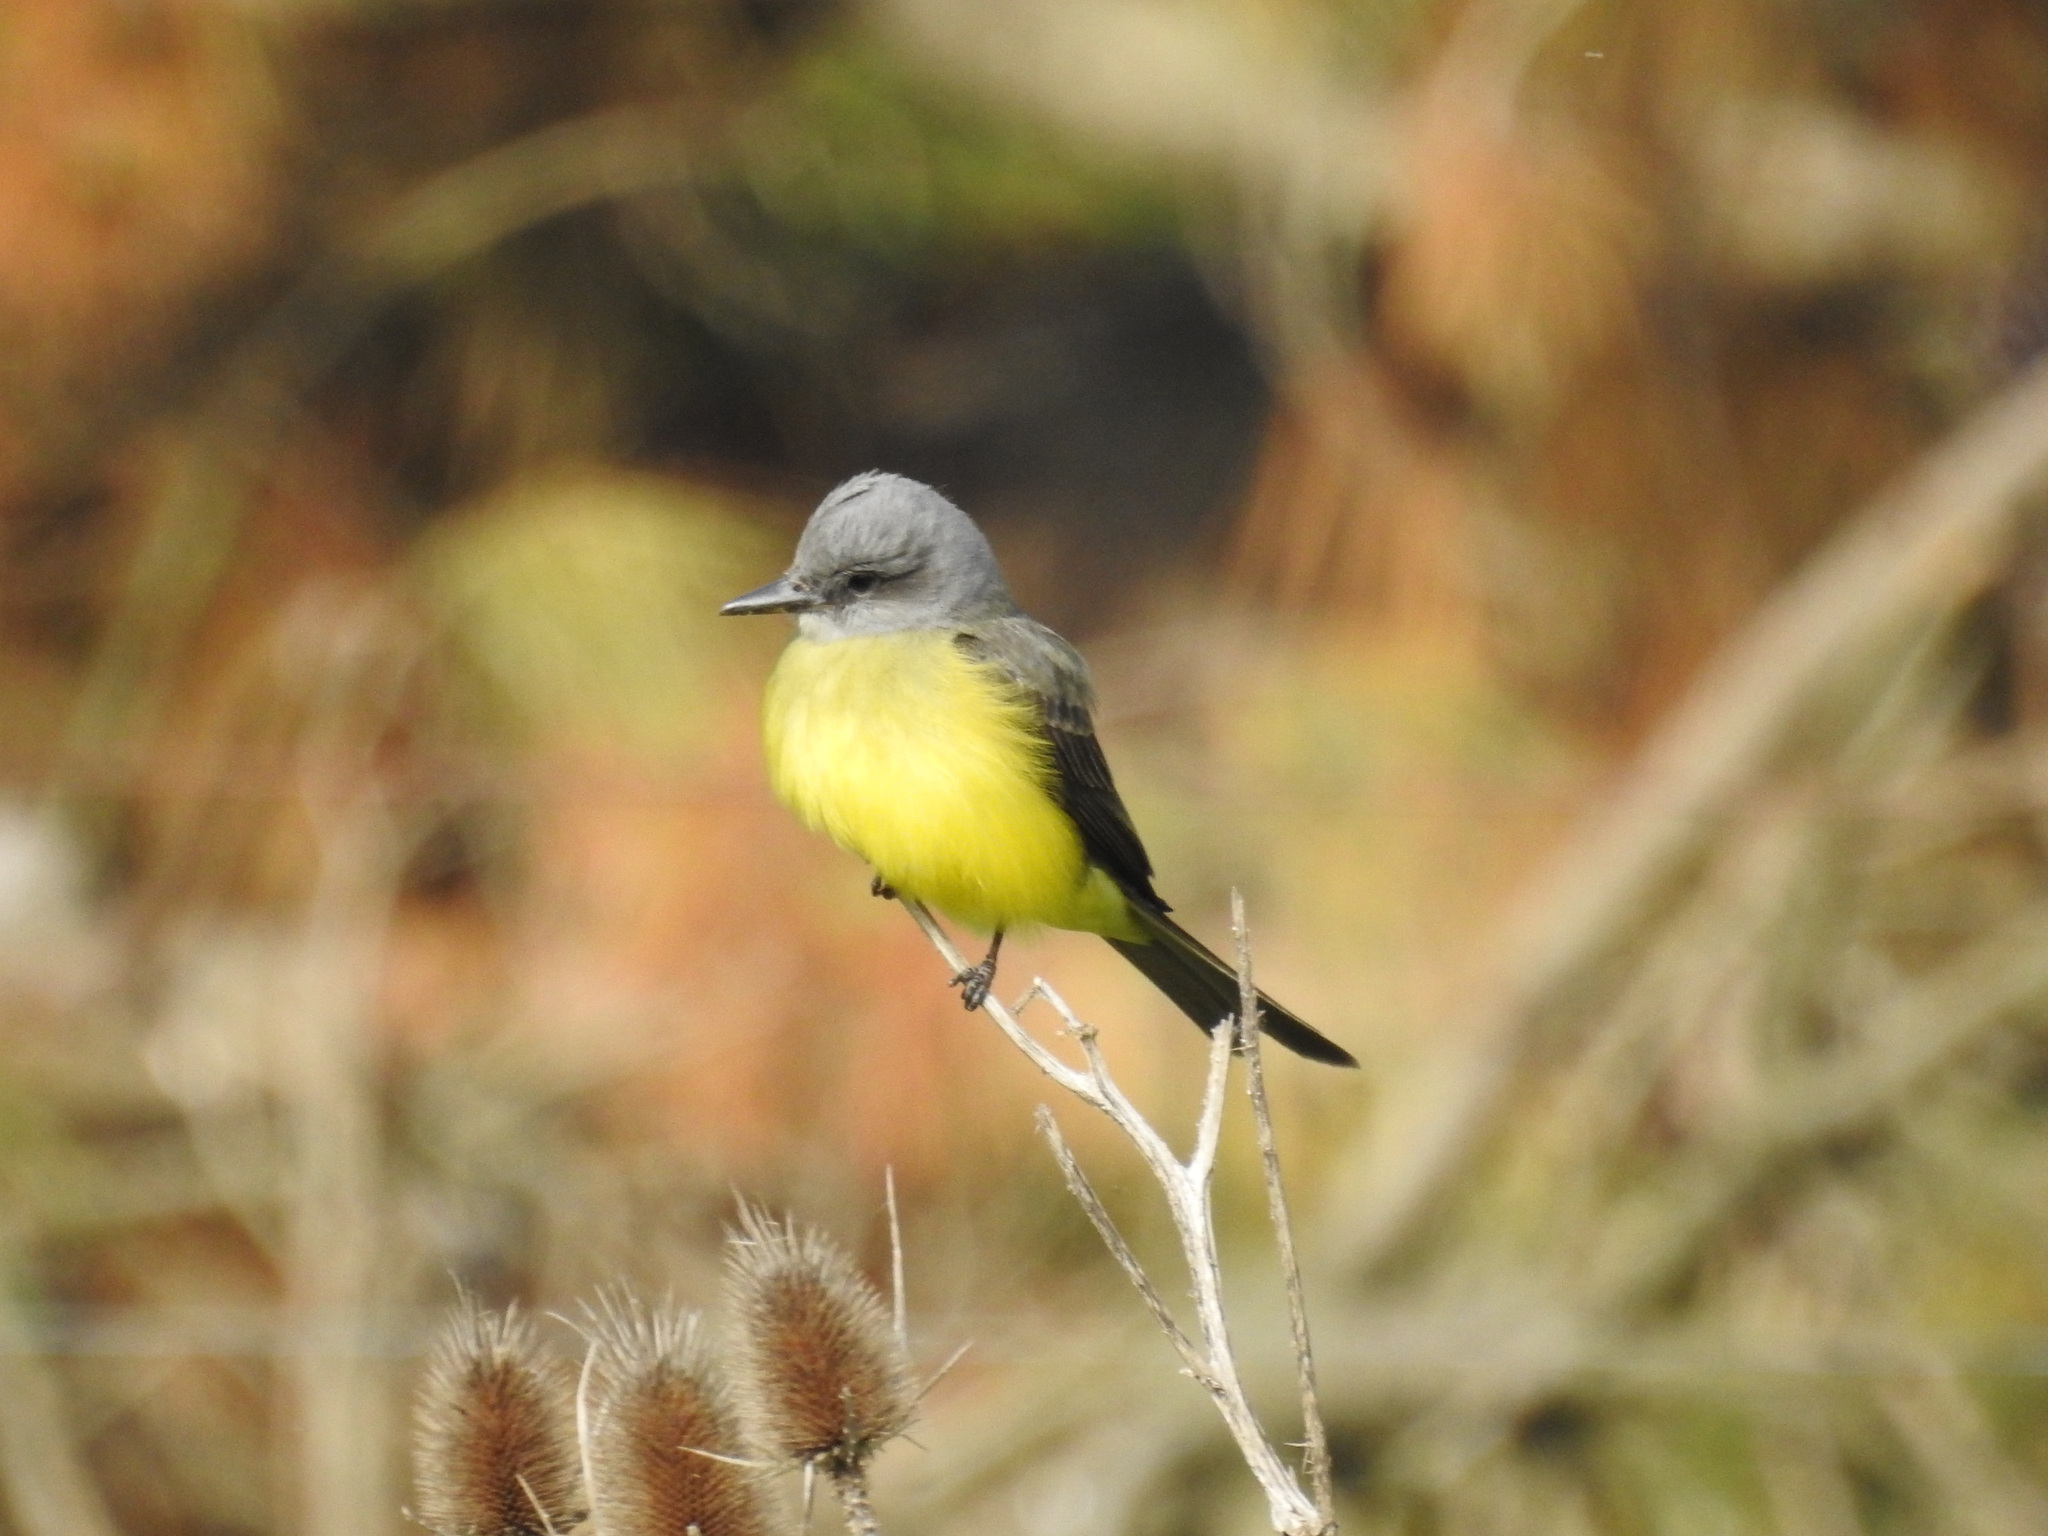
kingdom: Animalia
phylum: Chordata
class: Aves
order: Passeriformes
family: Tyrannidae
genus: Tyrannus
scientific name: Tyrannus melancholicus
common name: Tropical kingbird
